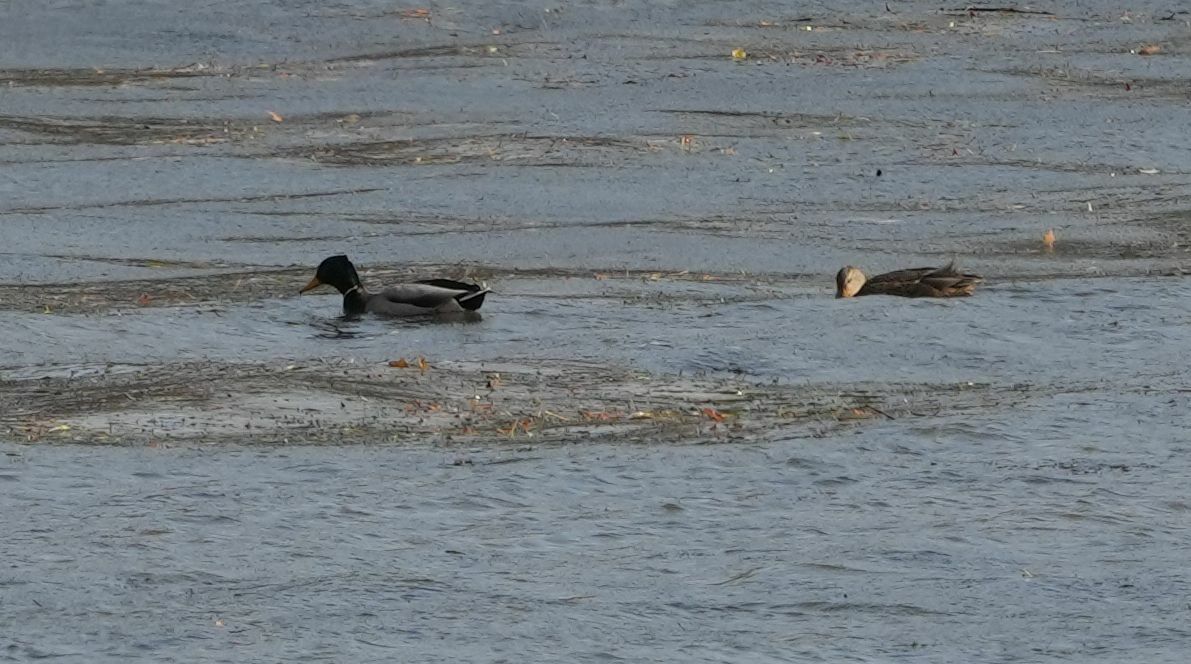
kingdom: Animalia
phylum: Chordata
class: Aves
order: Anseriformes
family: Anatidae
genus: Anas
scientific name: Anas platyrhynchos
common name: Mallard
